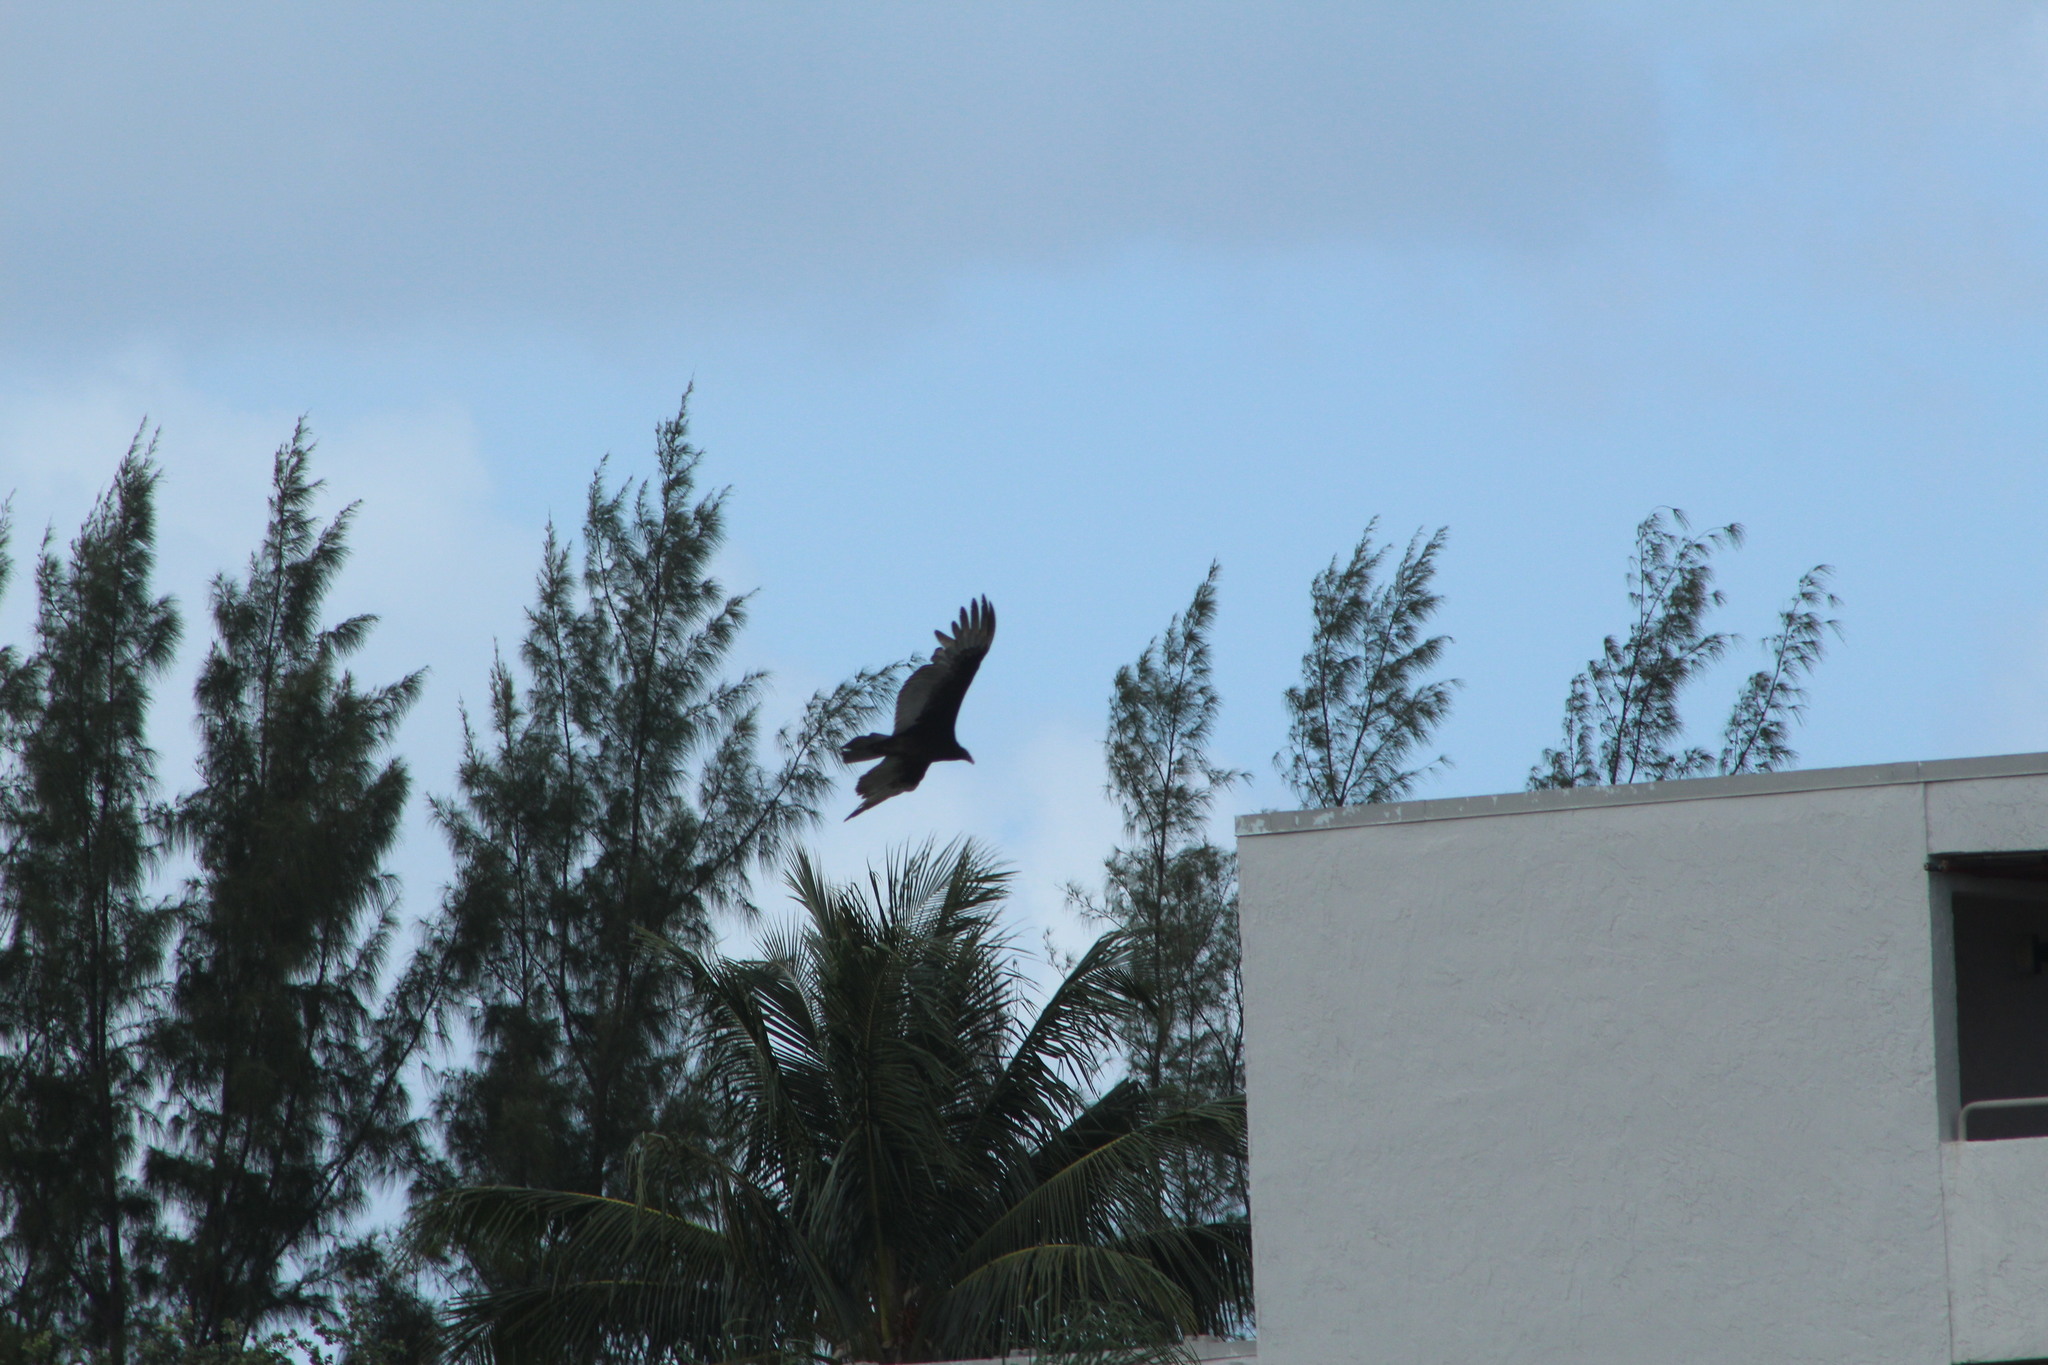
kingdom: Animalia
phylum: Chordata
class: Aves
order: Accipitriformes
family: Cathartidae
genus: Cathartes
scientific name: Cathartes aura
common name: Turkey vulture
